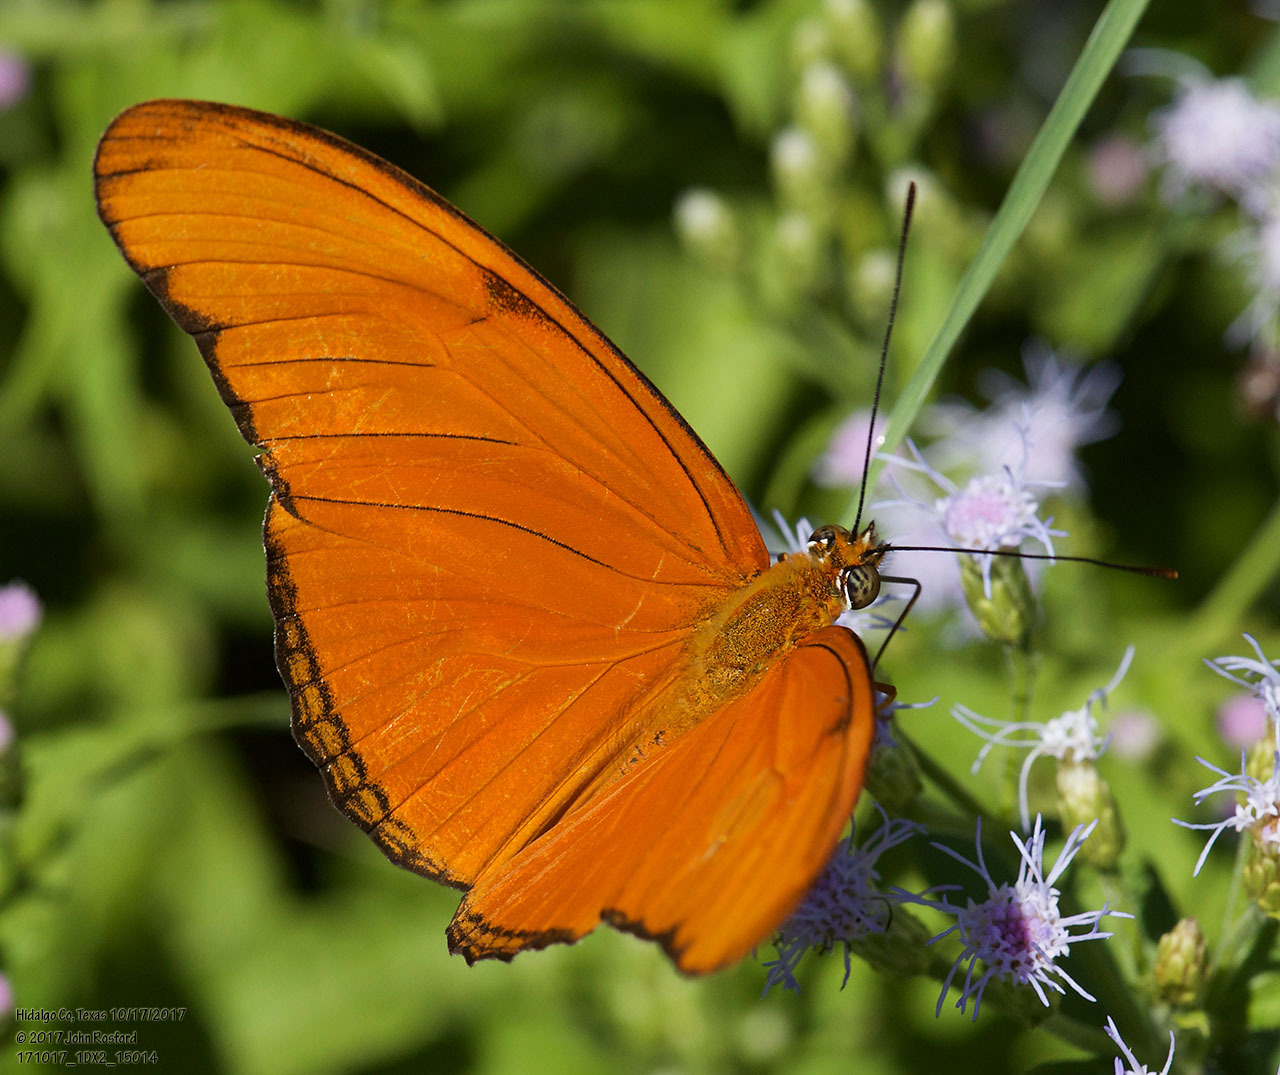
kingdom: Animalia
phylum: Arthropoda
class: Insecta
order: Lepidoptera
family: Nymphalidae
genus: Dryas
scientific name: Dryas iulia
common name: Flambeau
